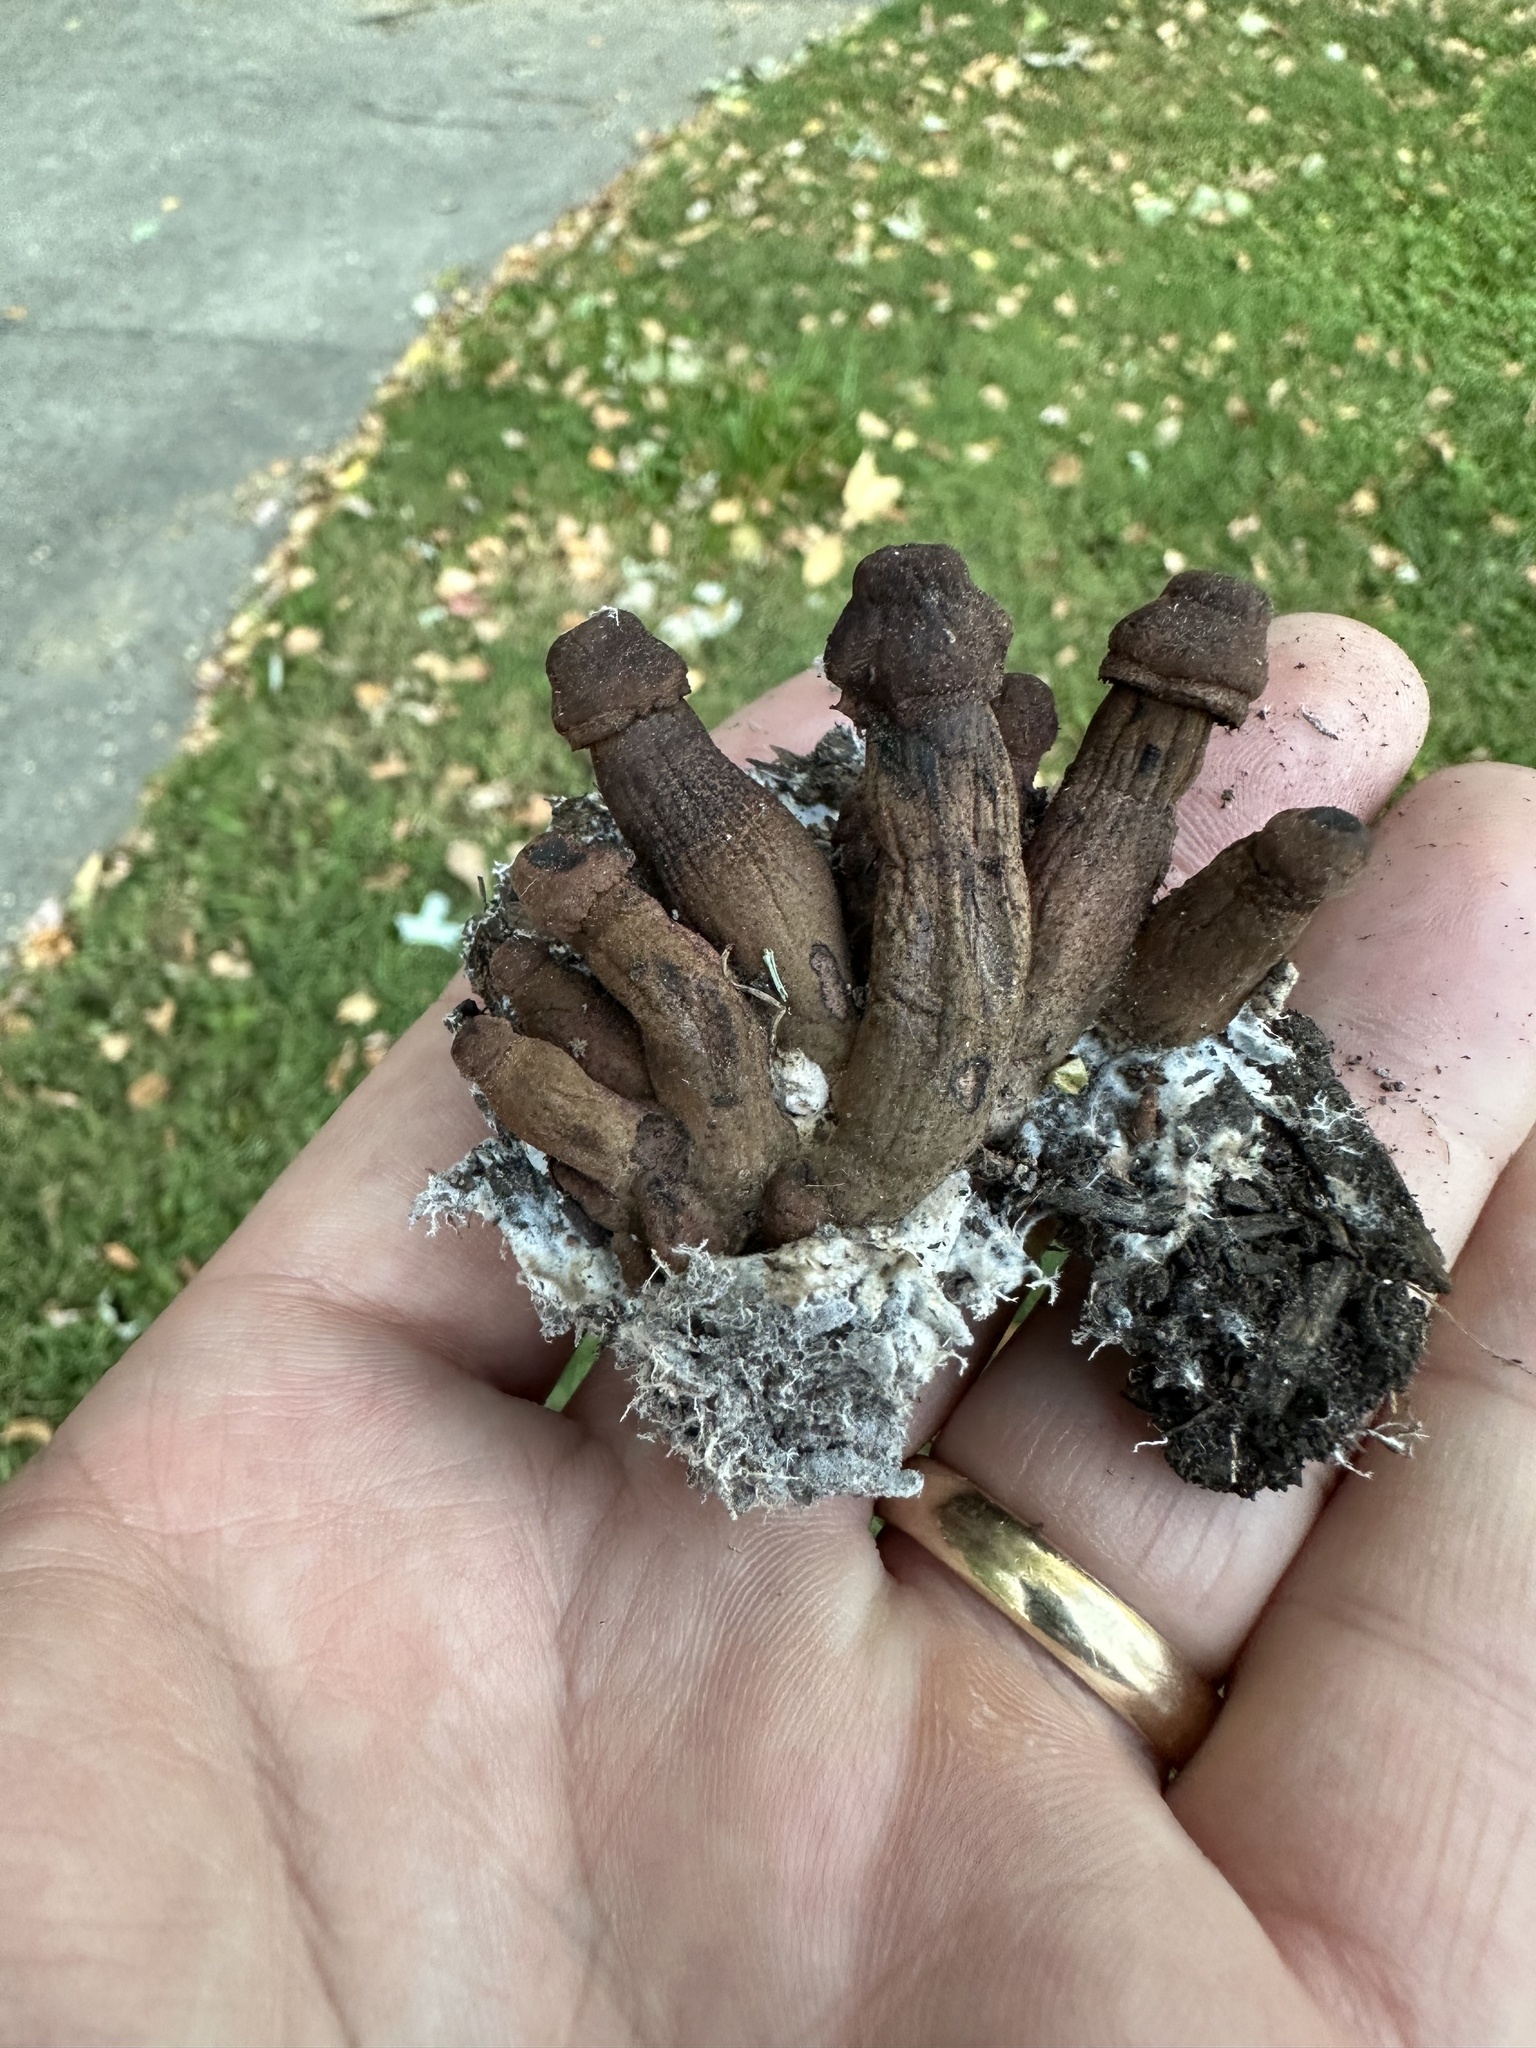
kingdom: Fungi
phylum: Basidiomycota
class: Agaricomycetes
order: Agaricales
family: Agaricaceae
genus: Leucoagaricus
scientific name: Leucoagaricus americanus
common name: Reddening lepiota
